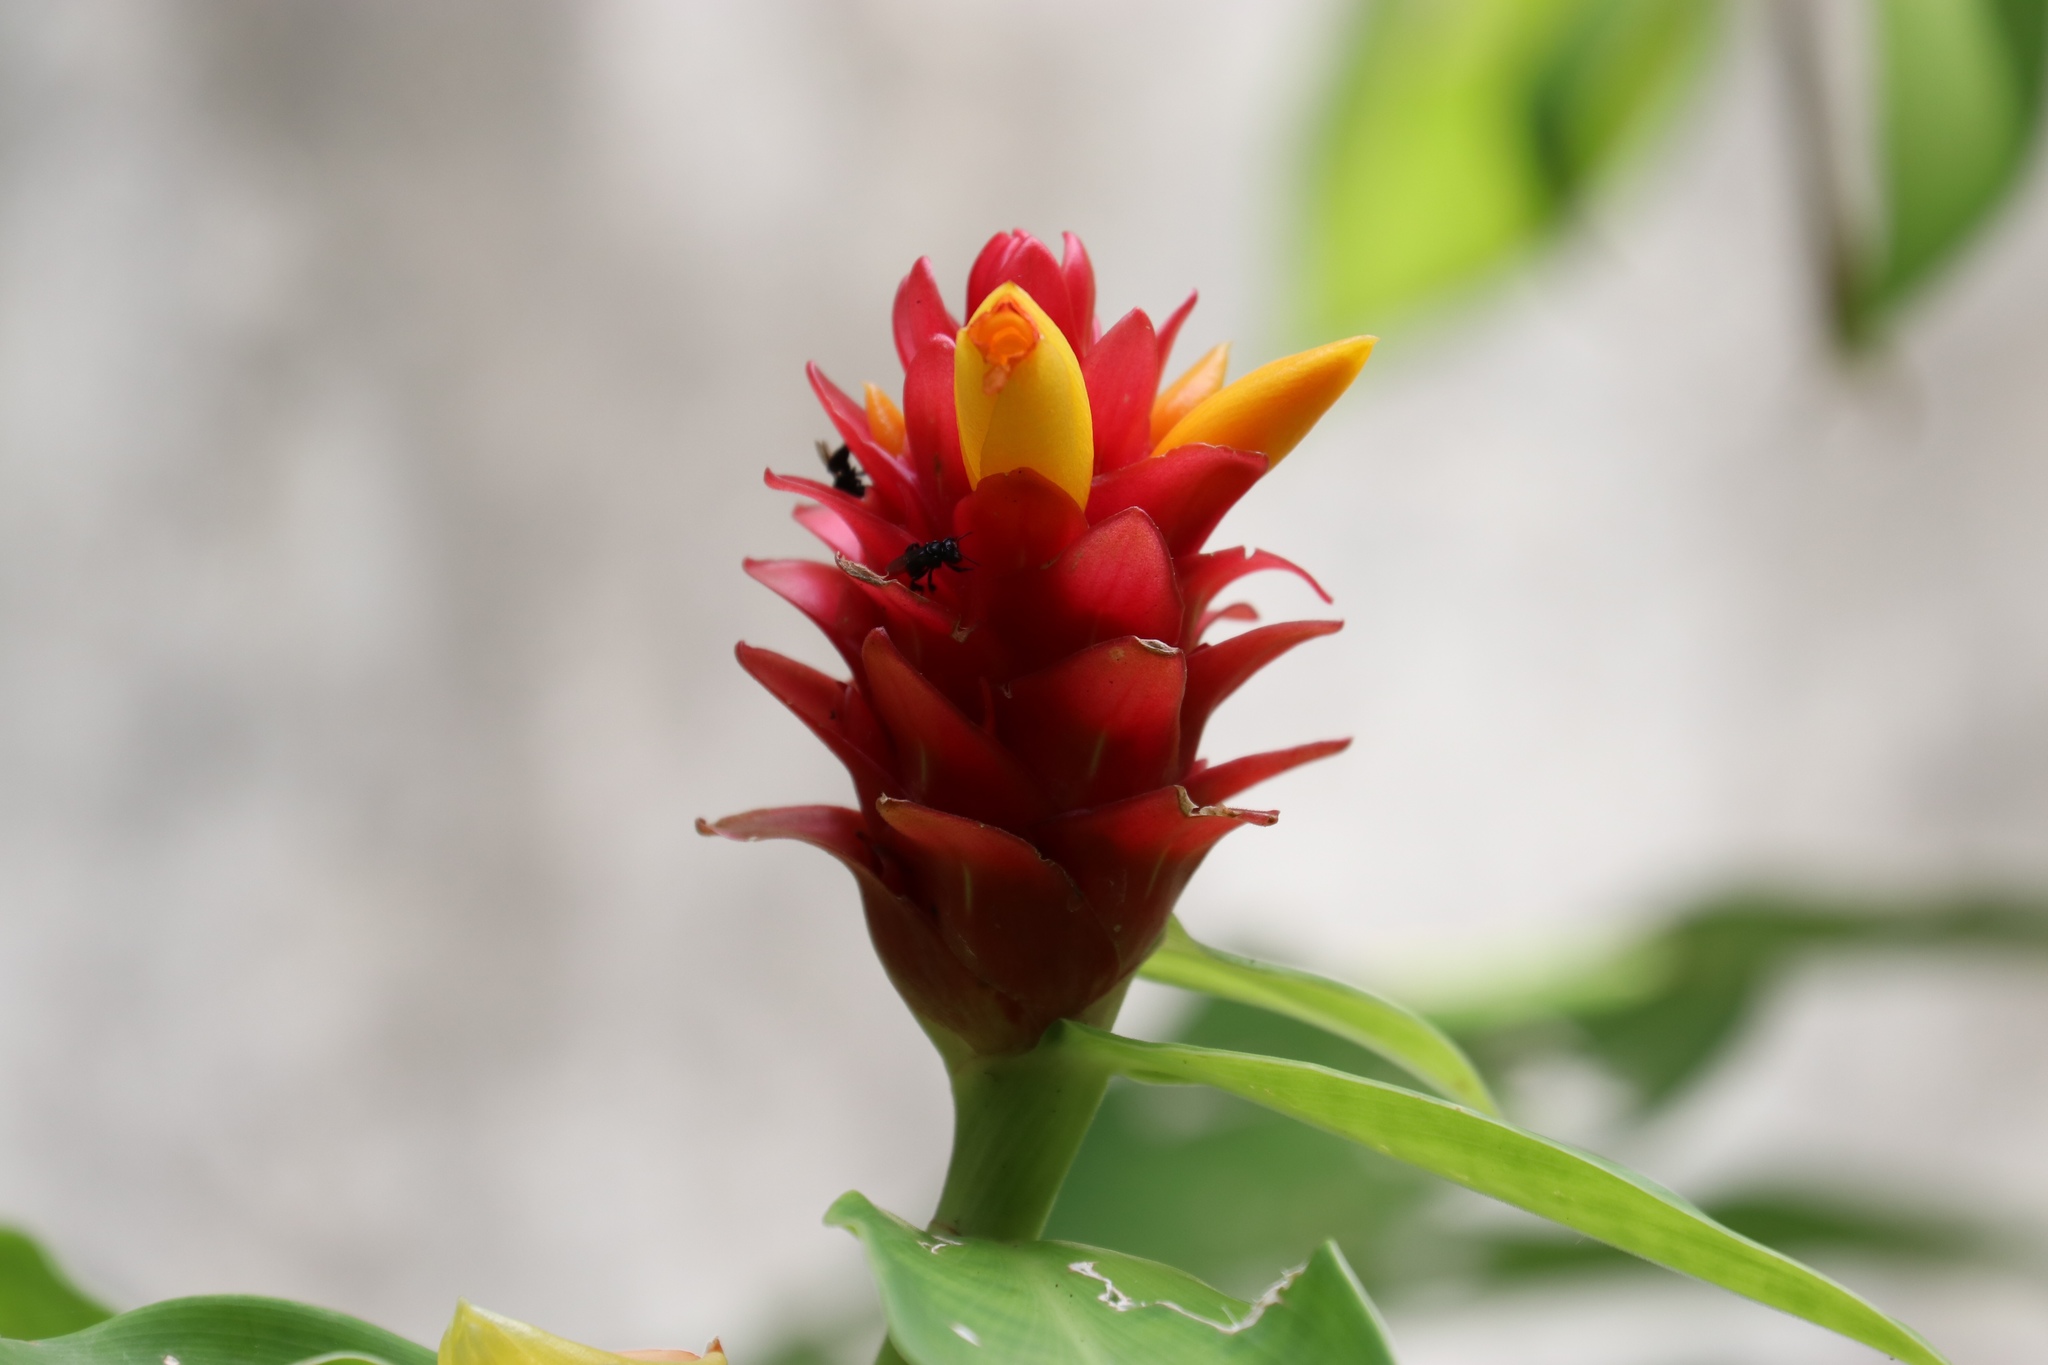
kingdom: Plantae
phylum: Tracheophyta
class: Liliopsida
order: Zingiberales
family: Costaceae
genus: Costus
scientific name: Costus comosus
